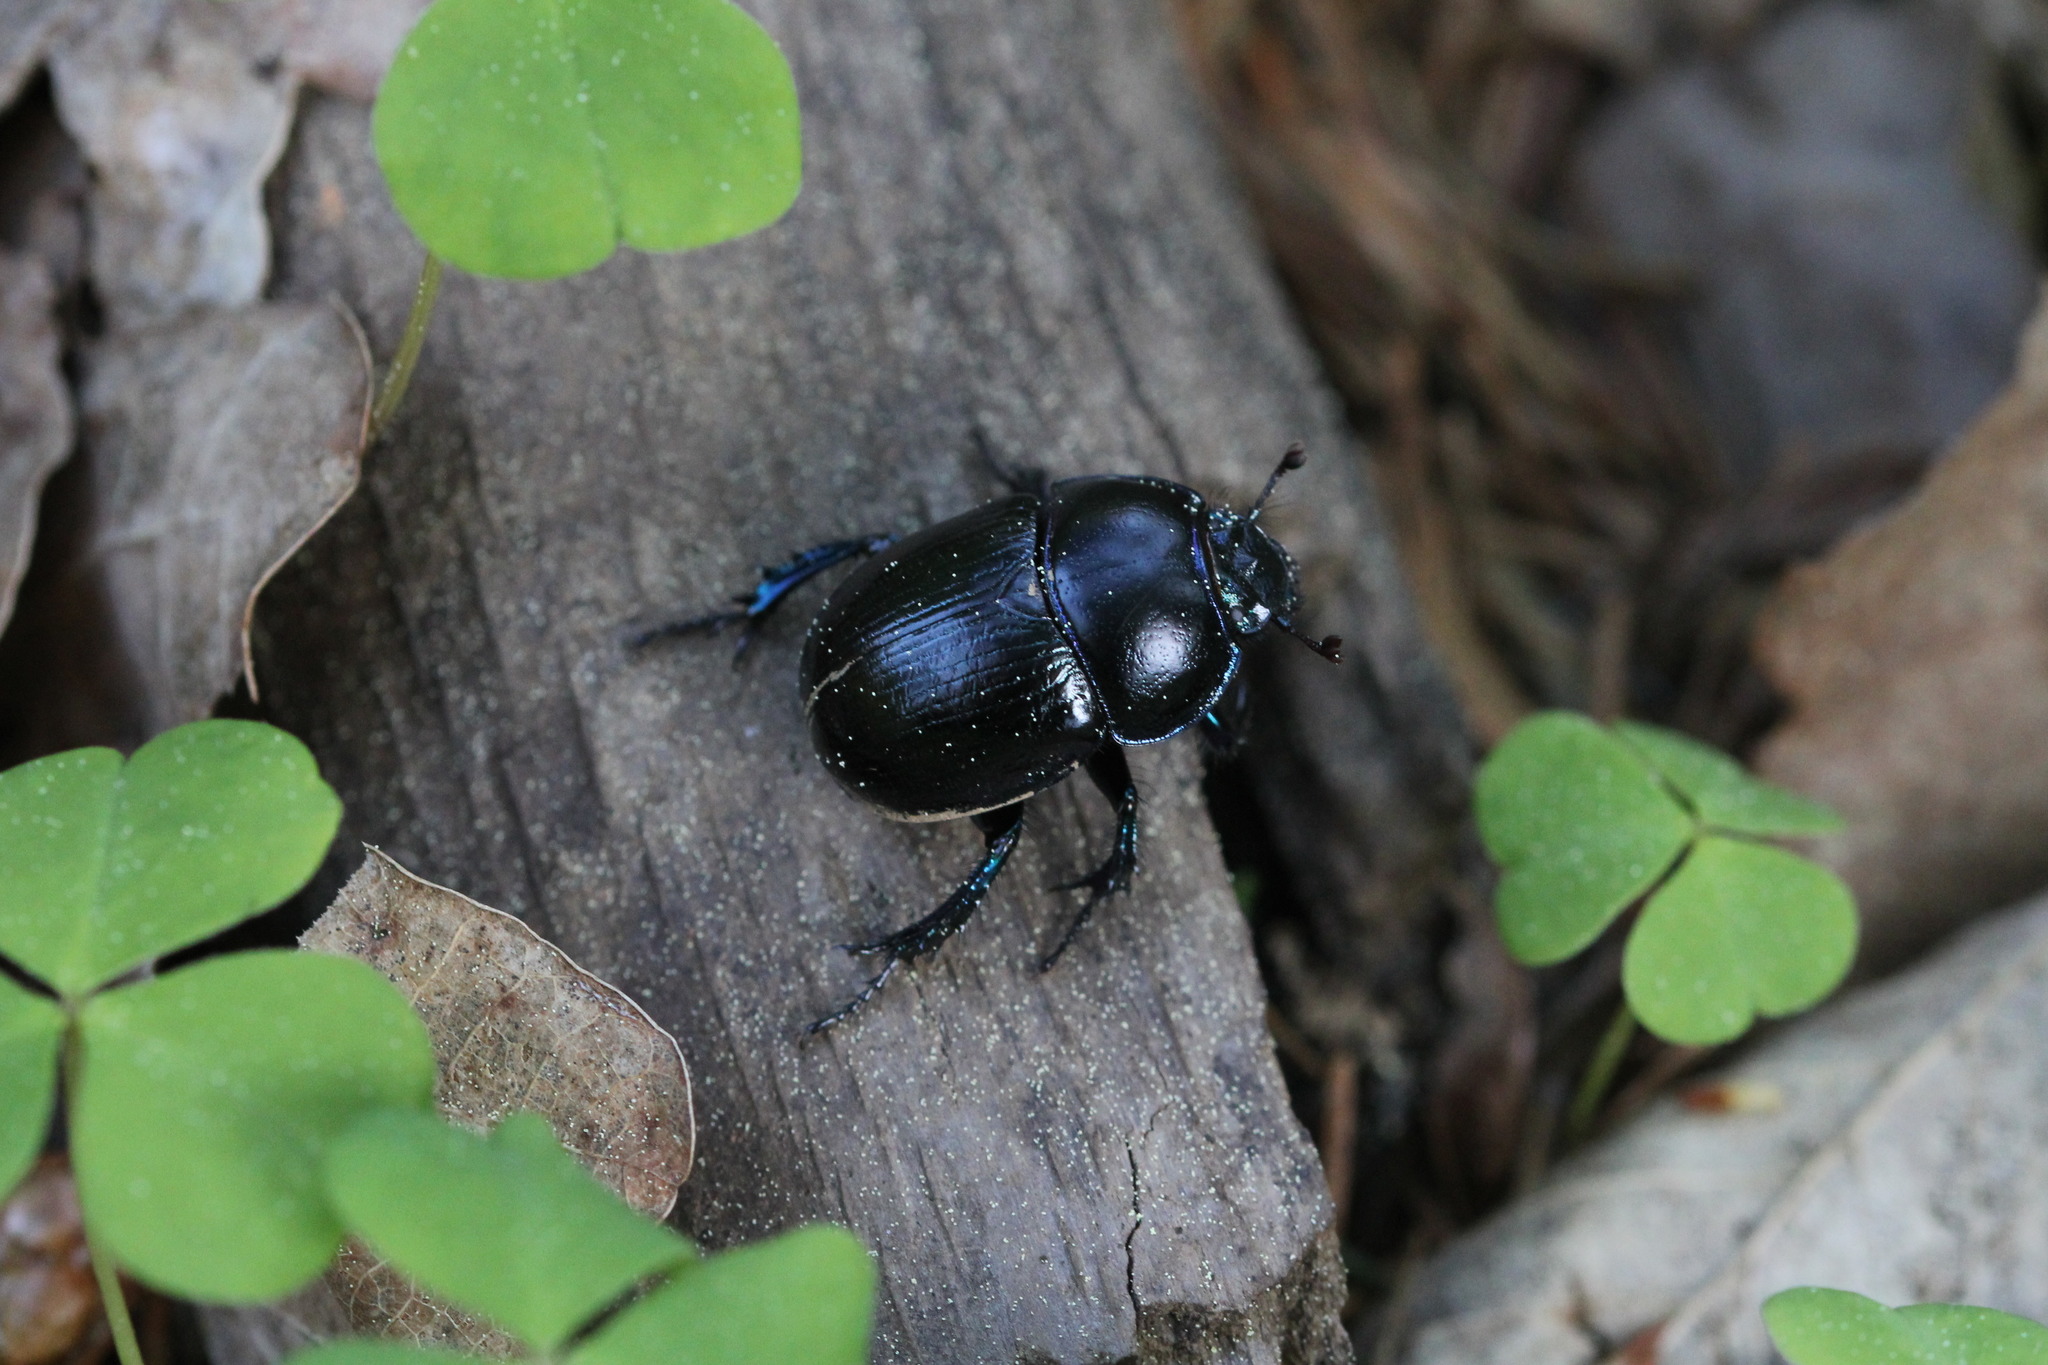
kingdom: Animalia
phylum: Arthropoda
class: Insecta
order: Coleoptera
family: Geotrupidae
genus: Anoplotrupes
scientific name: Anoplotrupes stercorosus
